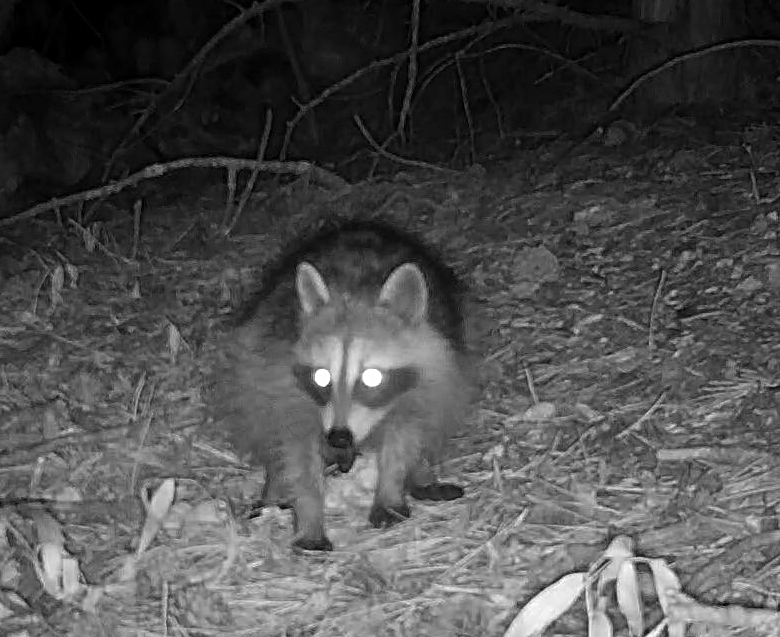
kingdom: Animalia
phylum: Chordata
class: Mammalia
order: Carnivora
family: Procyonidae
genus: Procyon
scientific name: Procyon lotor
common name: Raccoon
